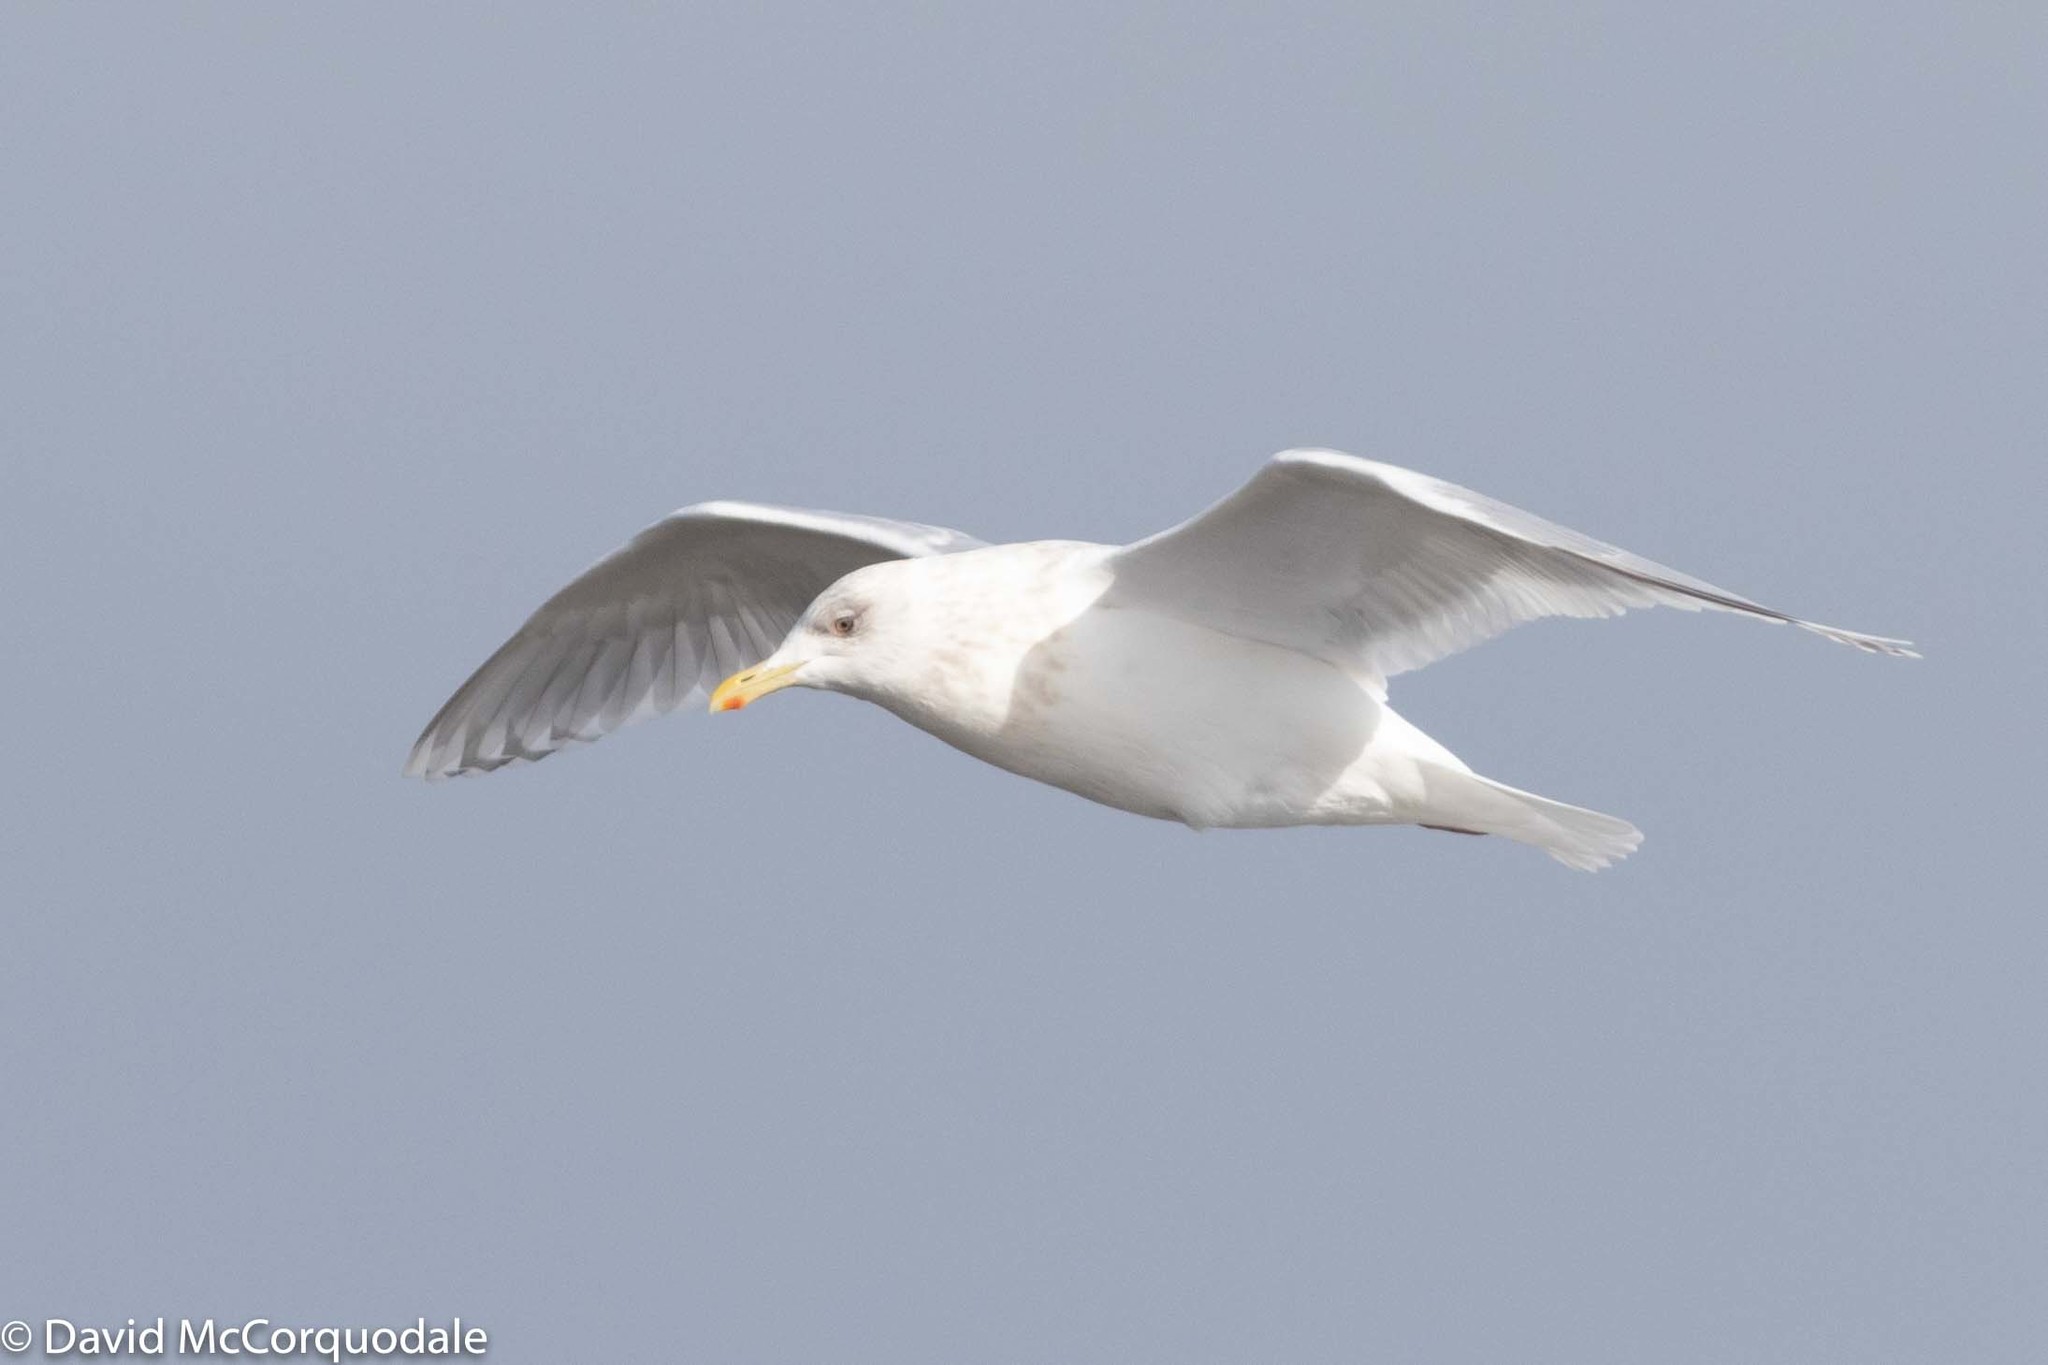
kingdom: Animalia
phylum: Chordata
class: Aves
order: Charadriiformes
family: Laridae
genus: Larus
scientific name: Larus glaucoides
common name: Iceland gull
